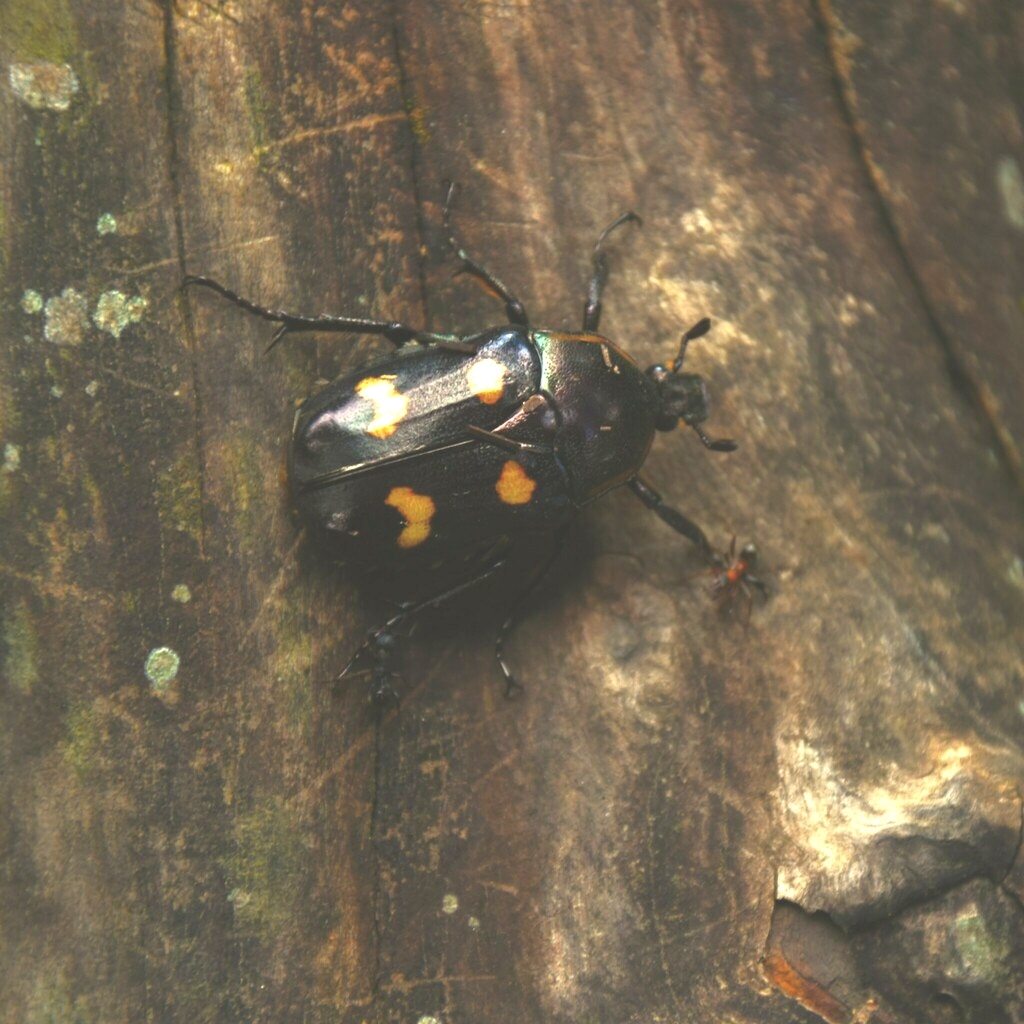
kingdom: Animalia
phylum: Arthropoda
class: Insecta
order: Coleoptera
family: Scarabaeidae
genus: Jumnos
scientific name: Jumnos roylei
